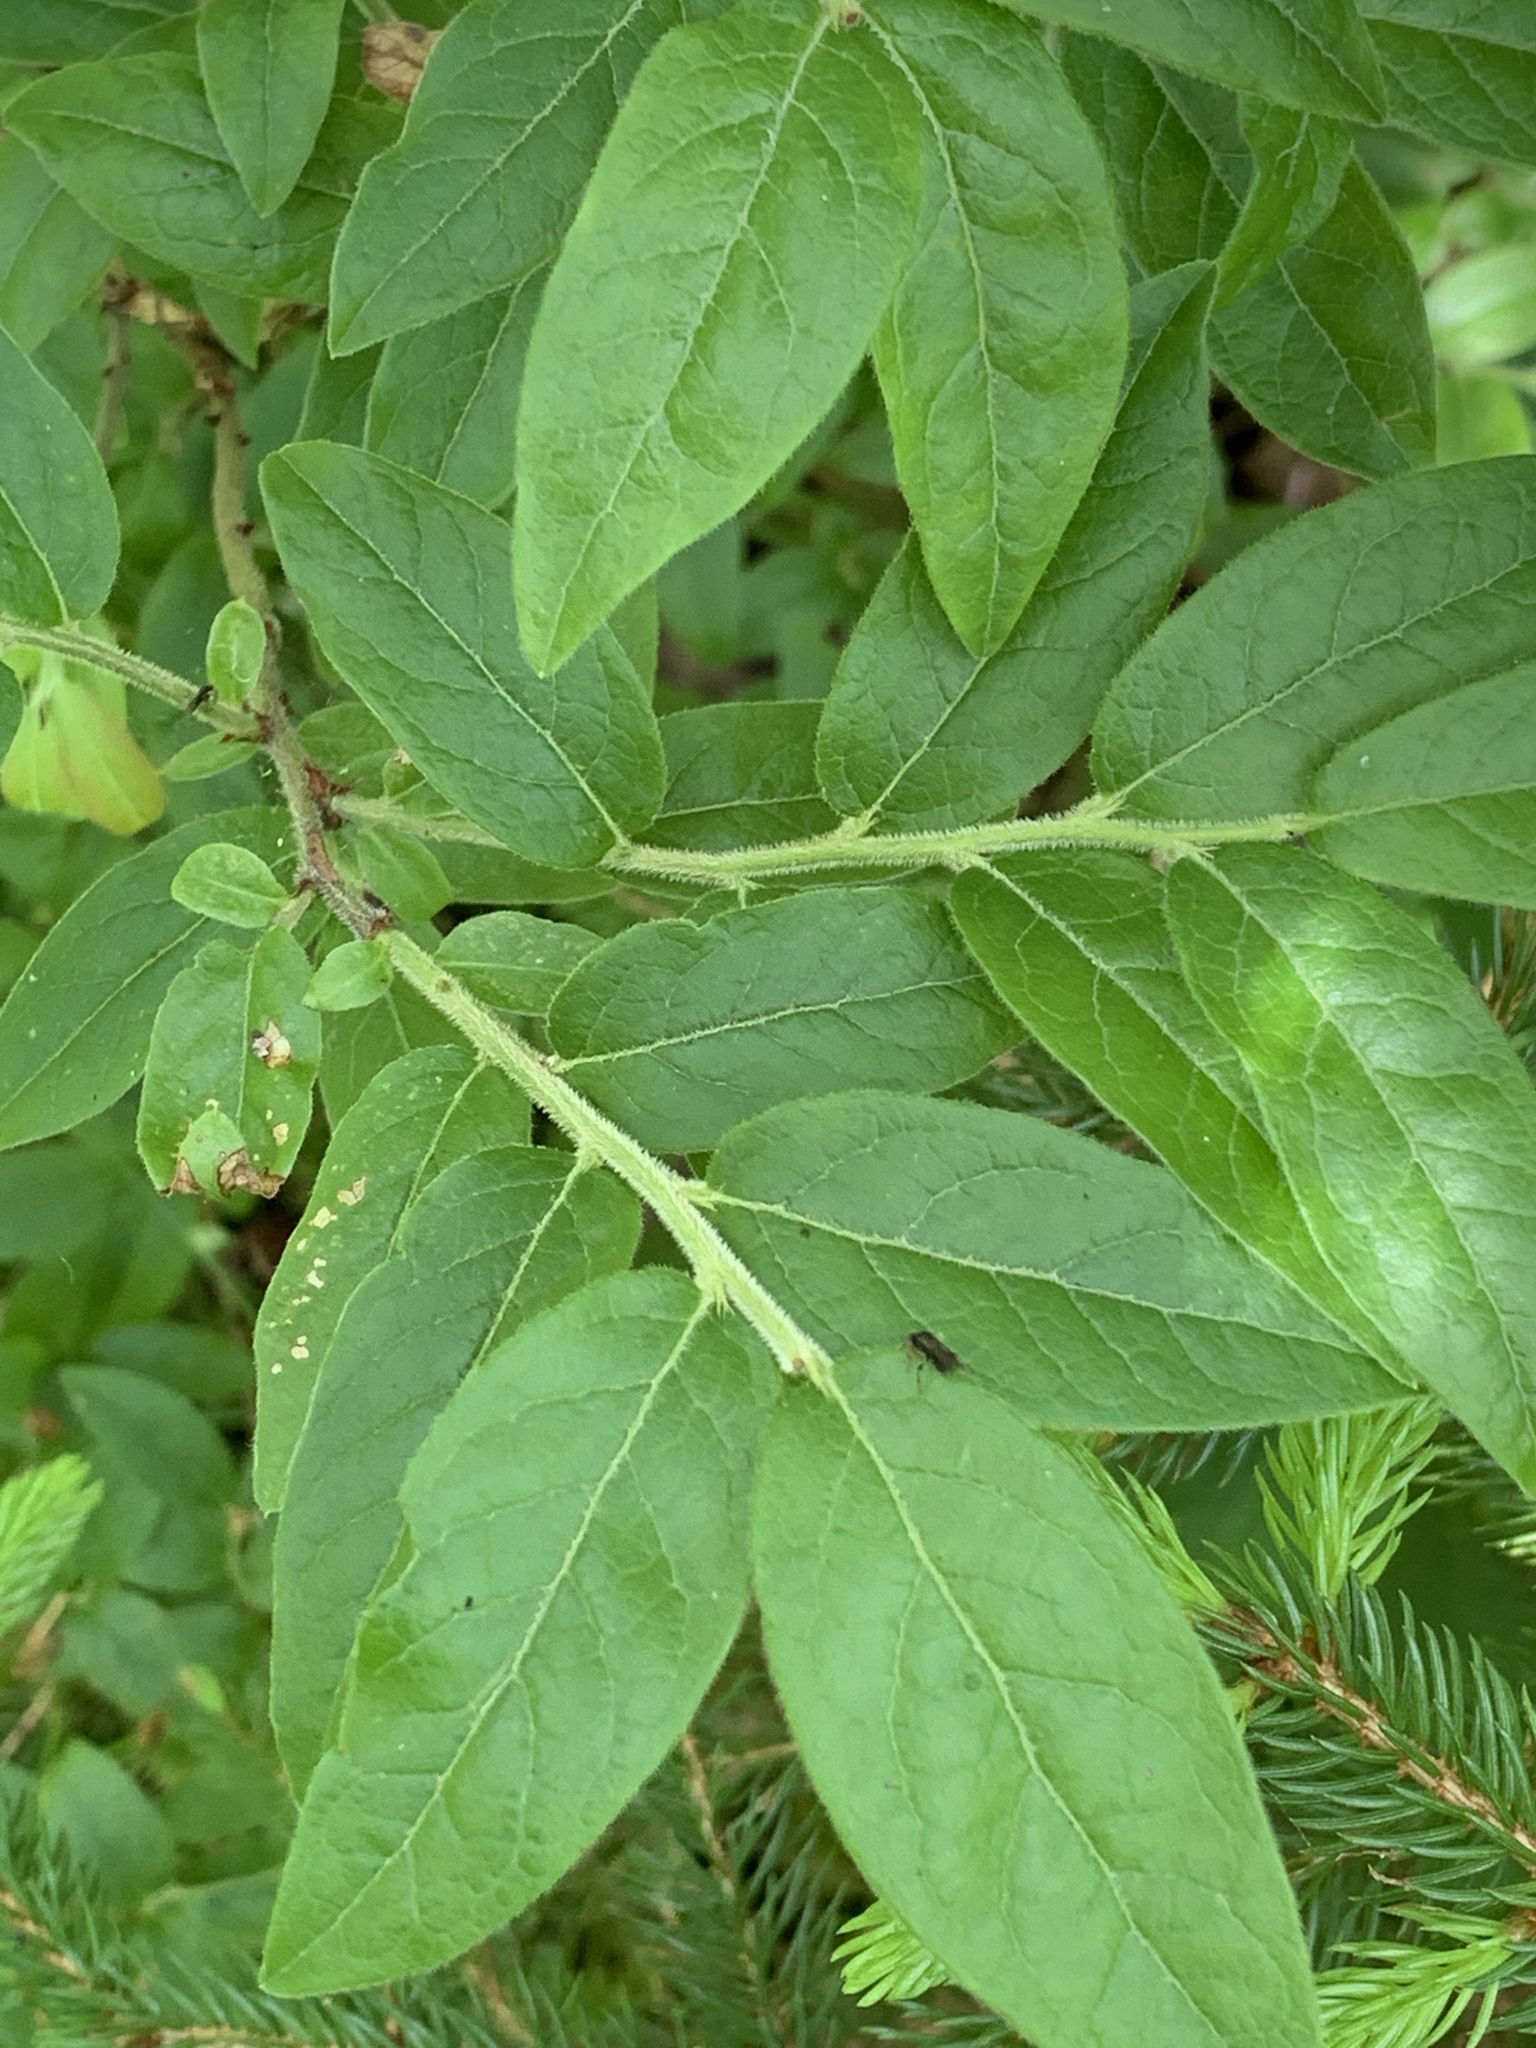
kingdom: Plantae
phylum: Tracheophyta
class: Magnoliopsida
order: Ericales
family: Ericaceae
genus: Vaccinium
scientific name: Vaccinium myrtilloides
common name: Canada blueberry
